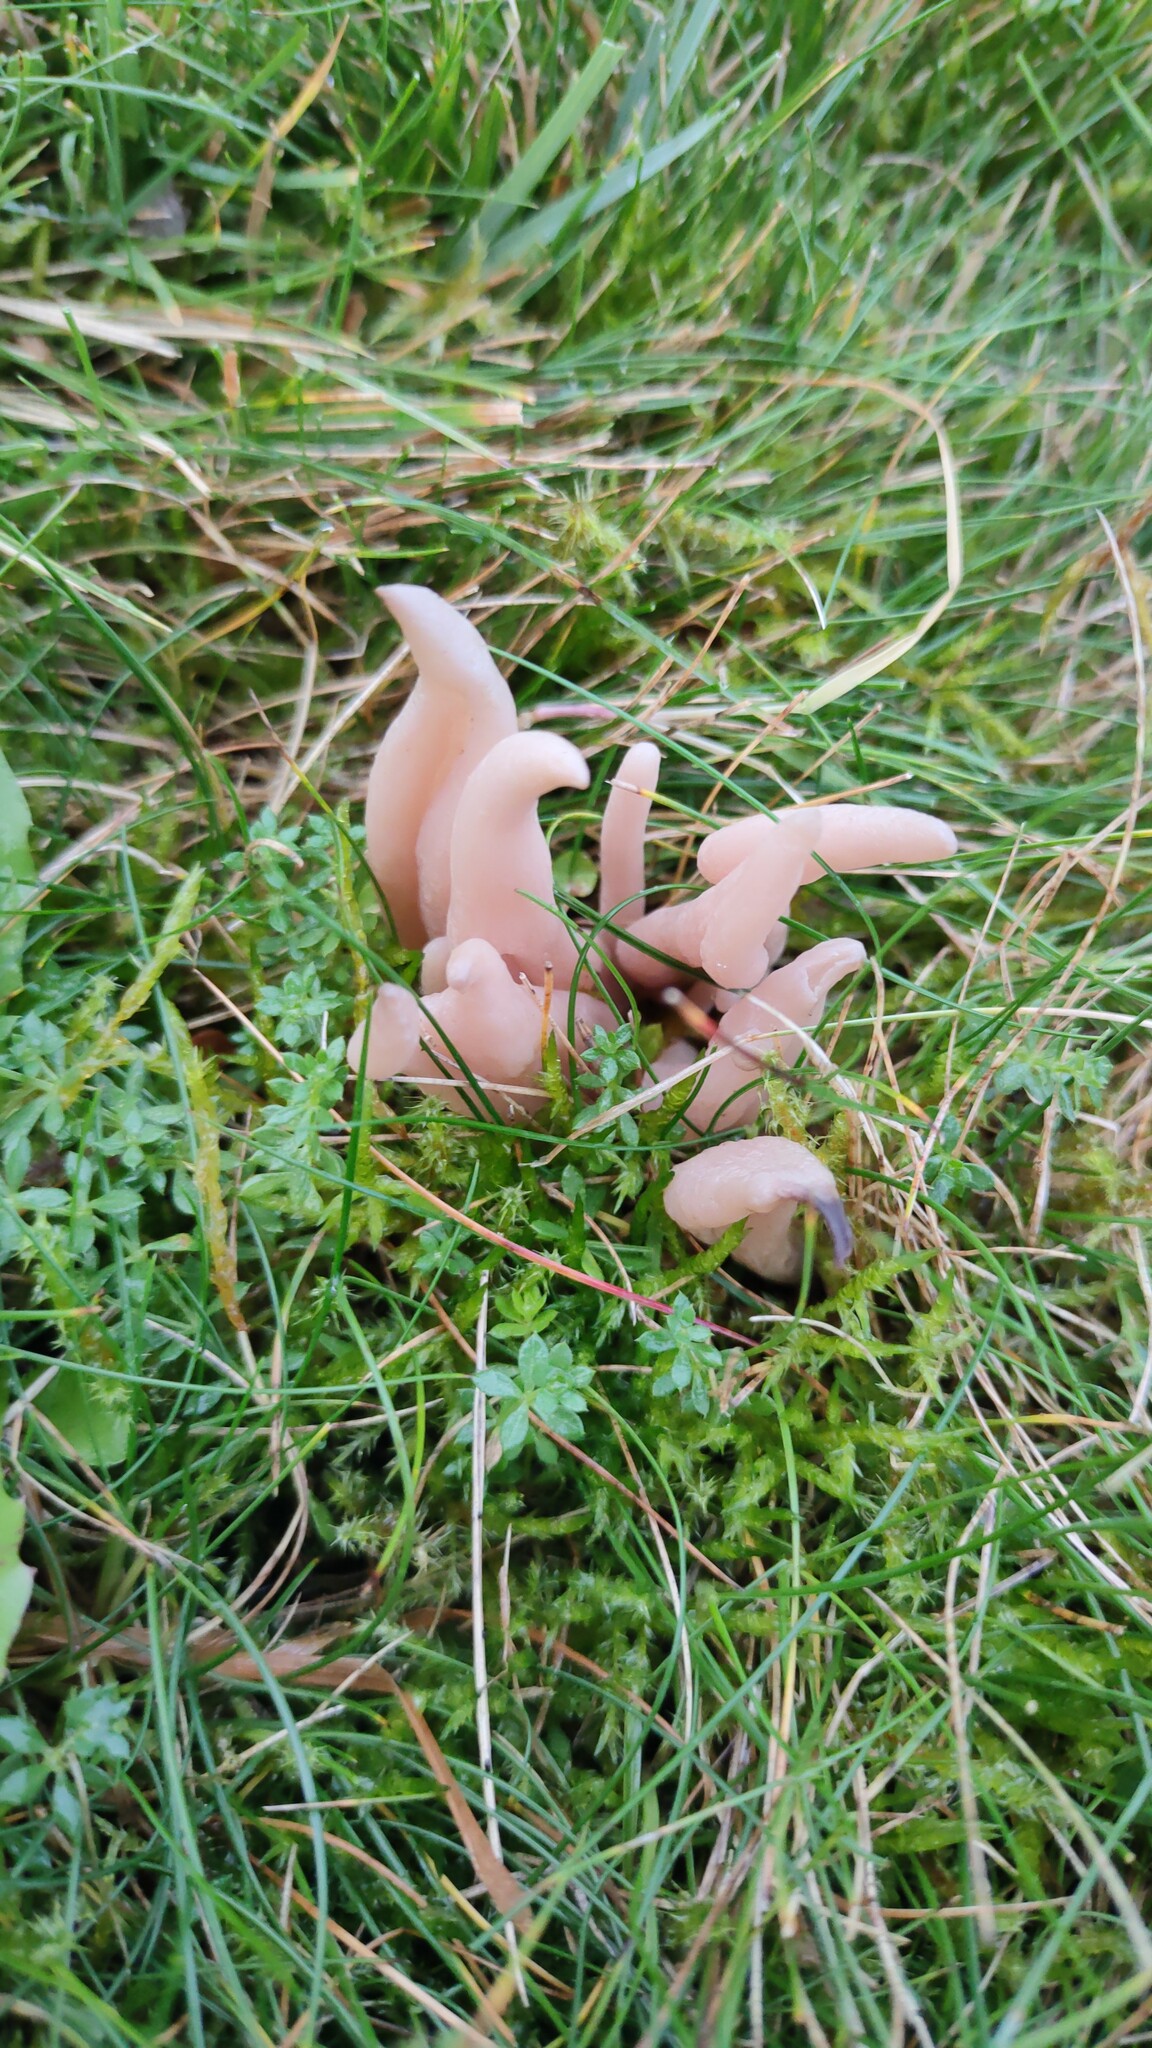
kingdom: Fungi
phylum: Basidiomycota
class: Agaricomycetes
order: Agaricales
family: Clavariaceae
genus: Clavaria
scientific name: Clavaria fumosa
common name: Smoky spindles
